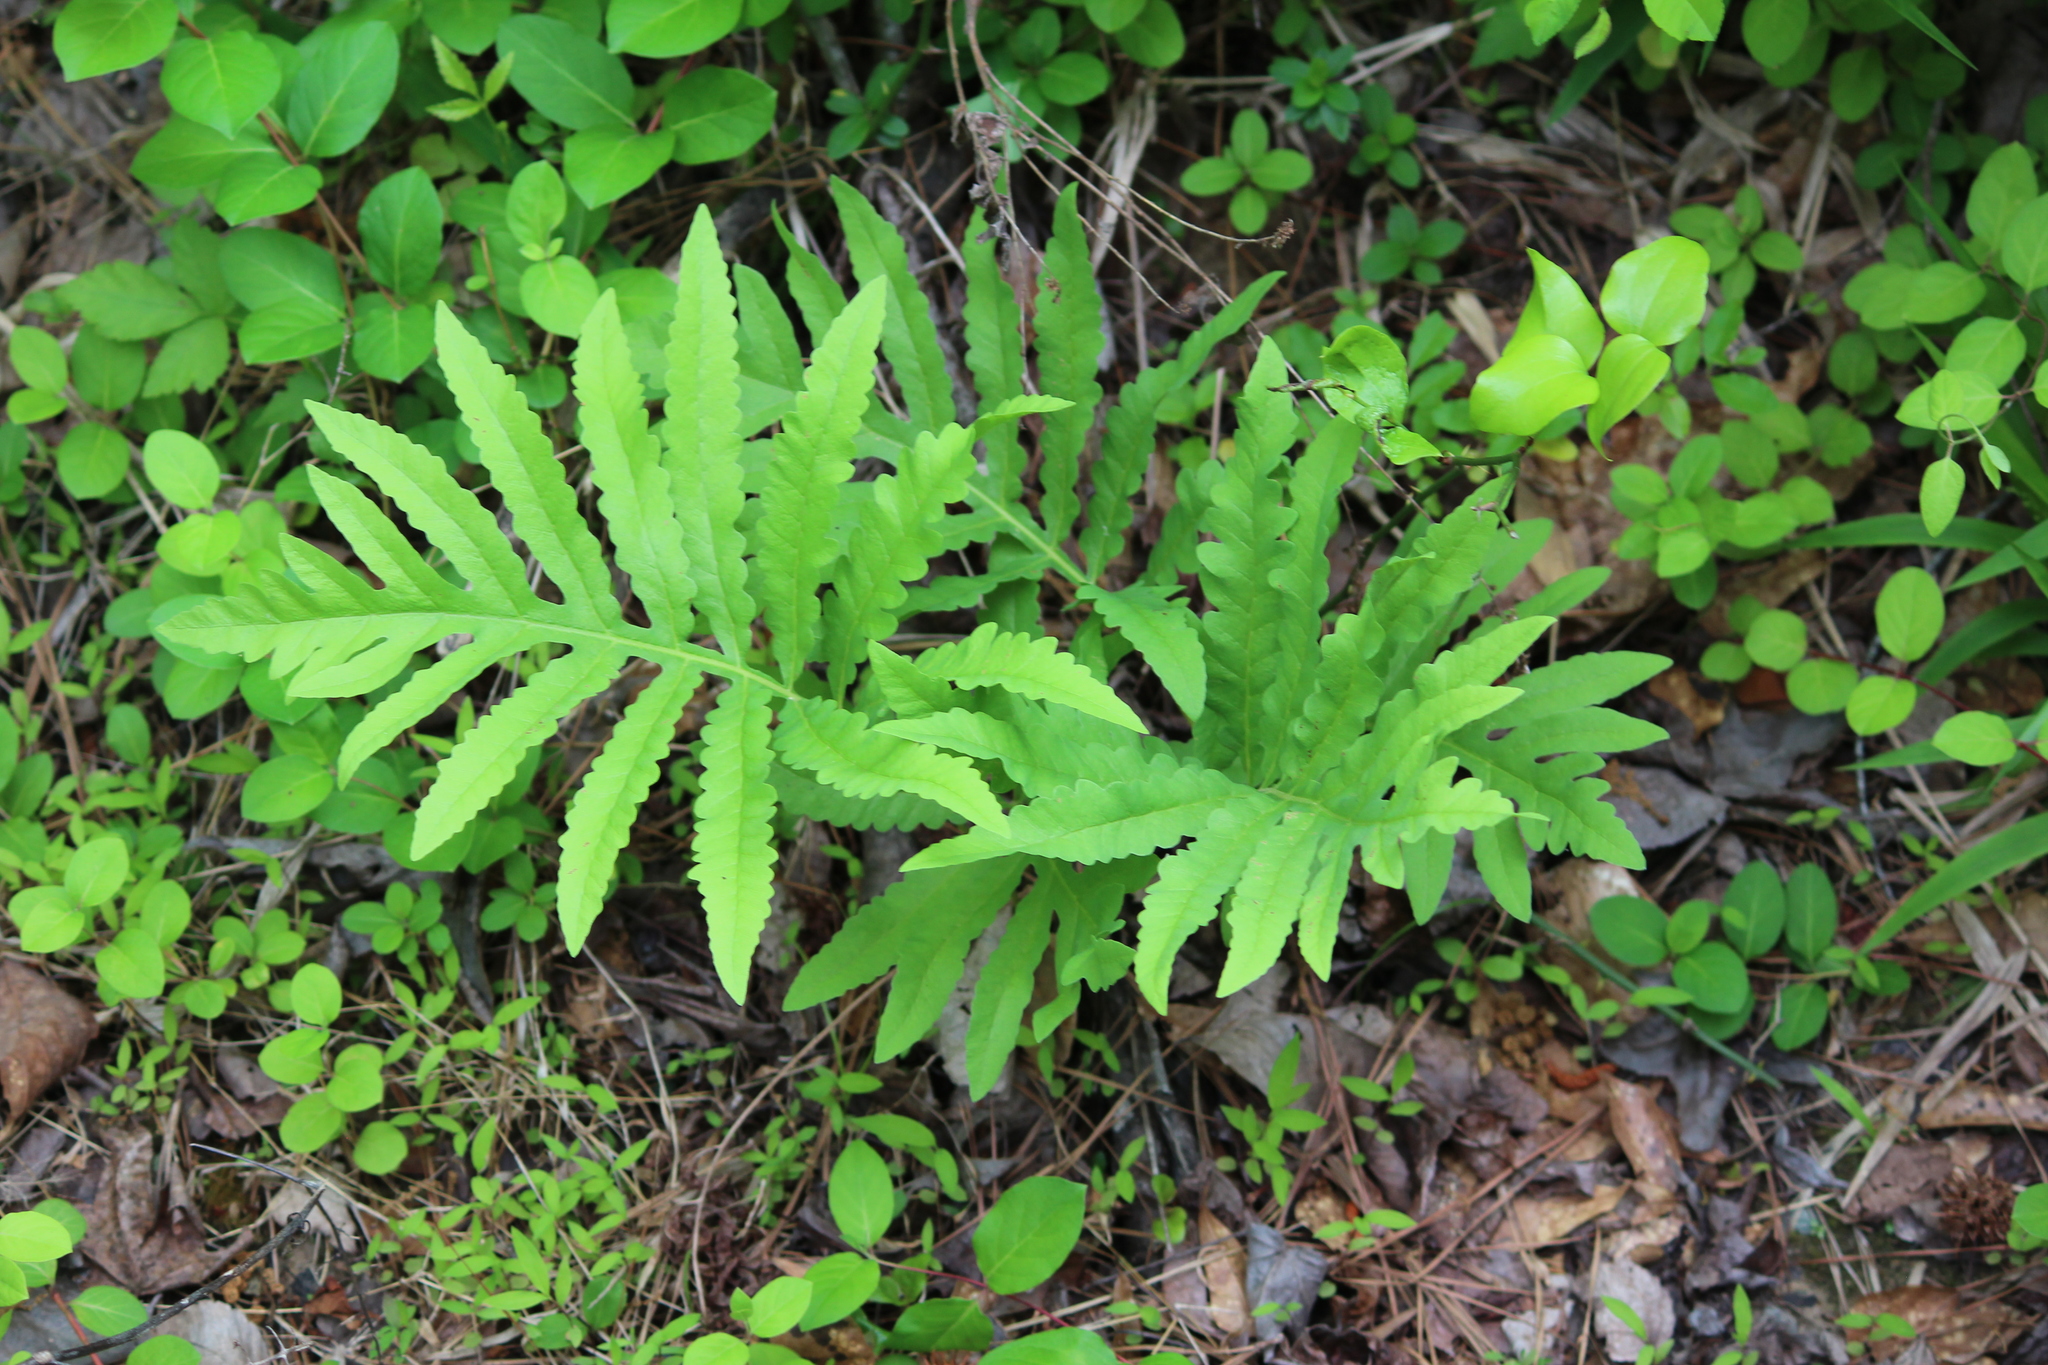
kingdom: Plantae
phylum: Tracheophyta
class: Polypodiopsida
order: Polypodiales
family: Onocleaceae
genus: Onoclea
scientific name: Onoclea sensibilis
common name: Sensitive fern
